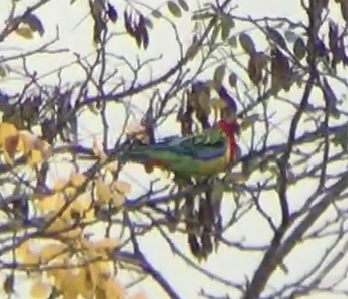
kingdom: Animalia
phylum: Chordata
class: Aves
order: Psittaciformes
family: Psittacidae
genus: Platycercus
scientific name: Platycercus eximius
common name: Eastern rosella
